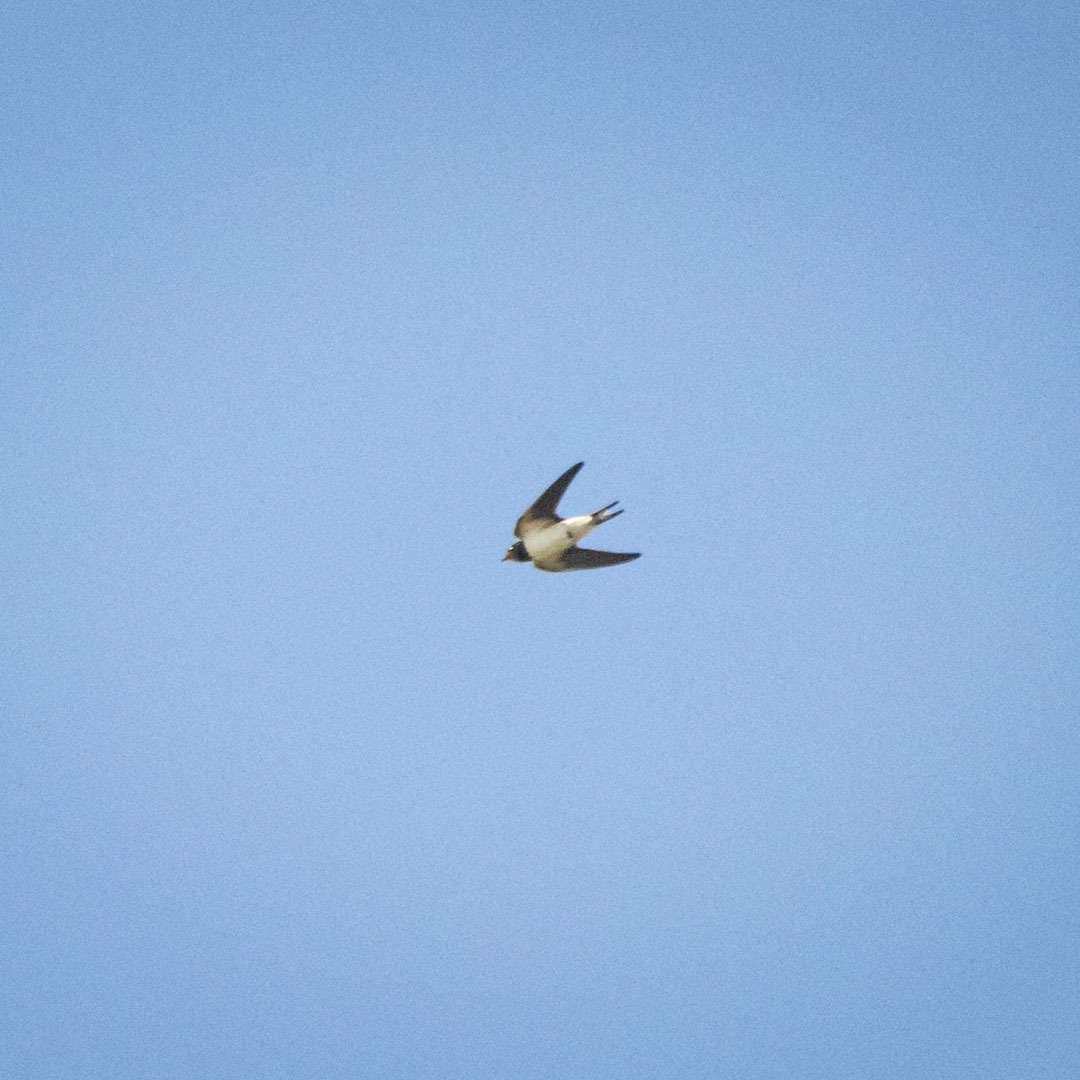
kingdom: Animalia
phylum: Chordata
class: Aves
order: Passeriformes
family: Hirundinidae
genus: Hirundo
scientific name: Hirundo rustica
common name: Barn swallow
